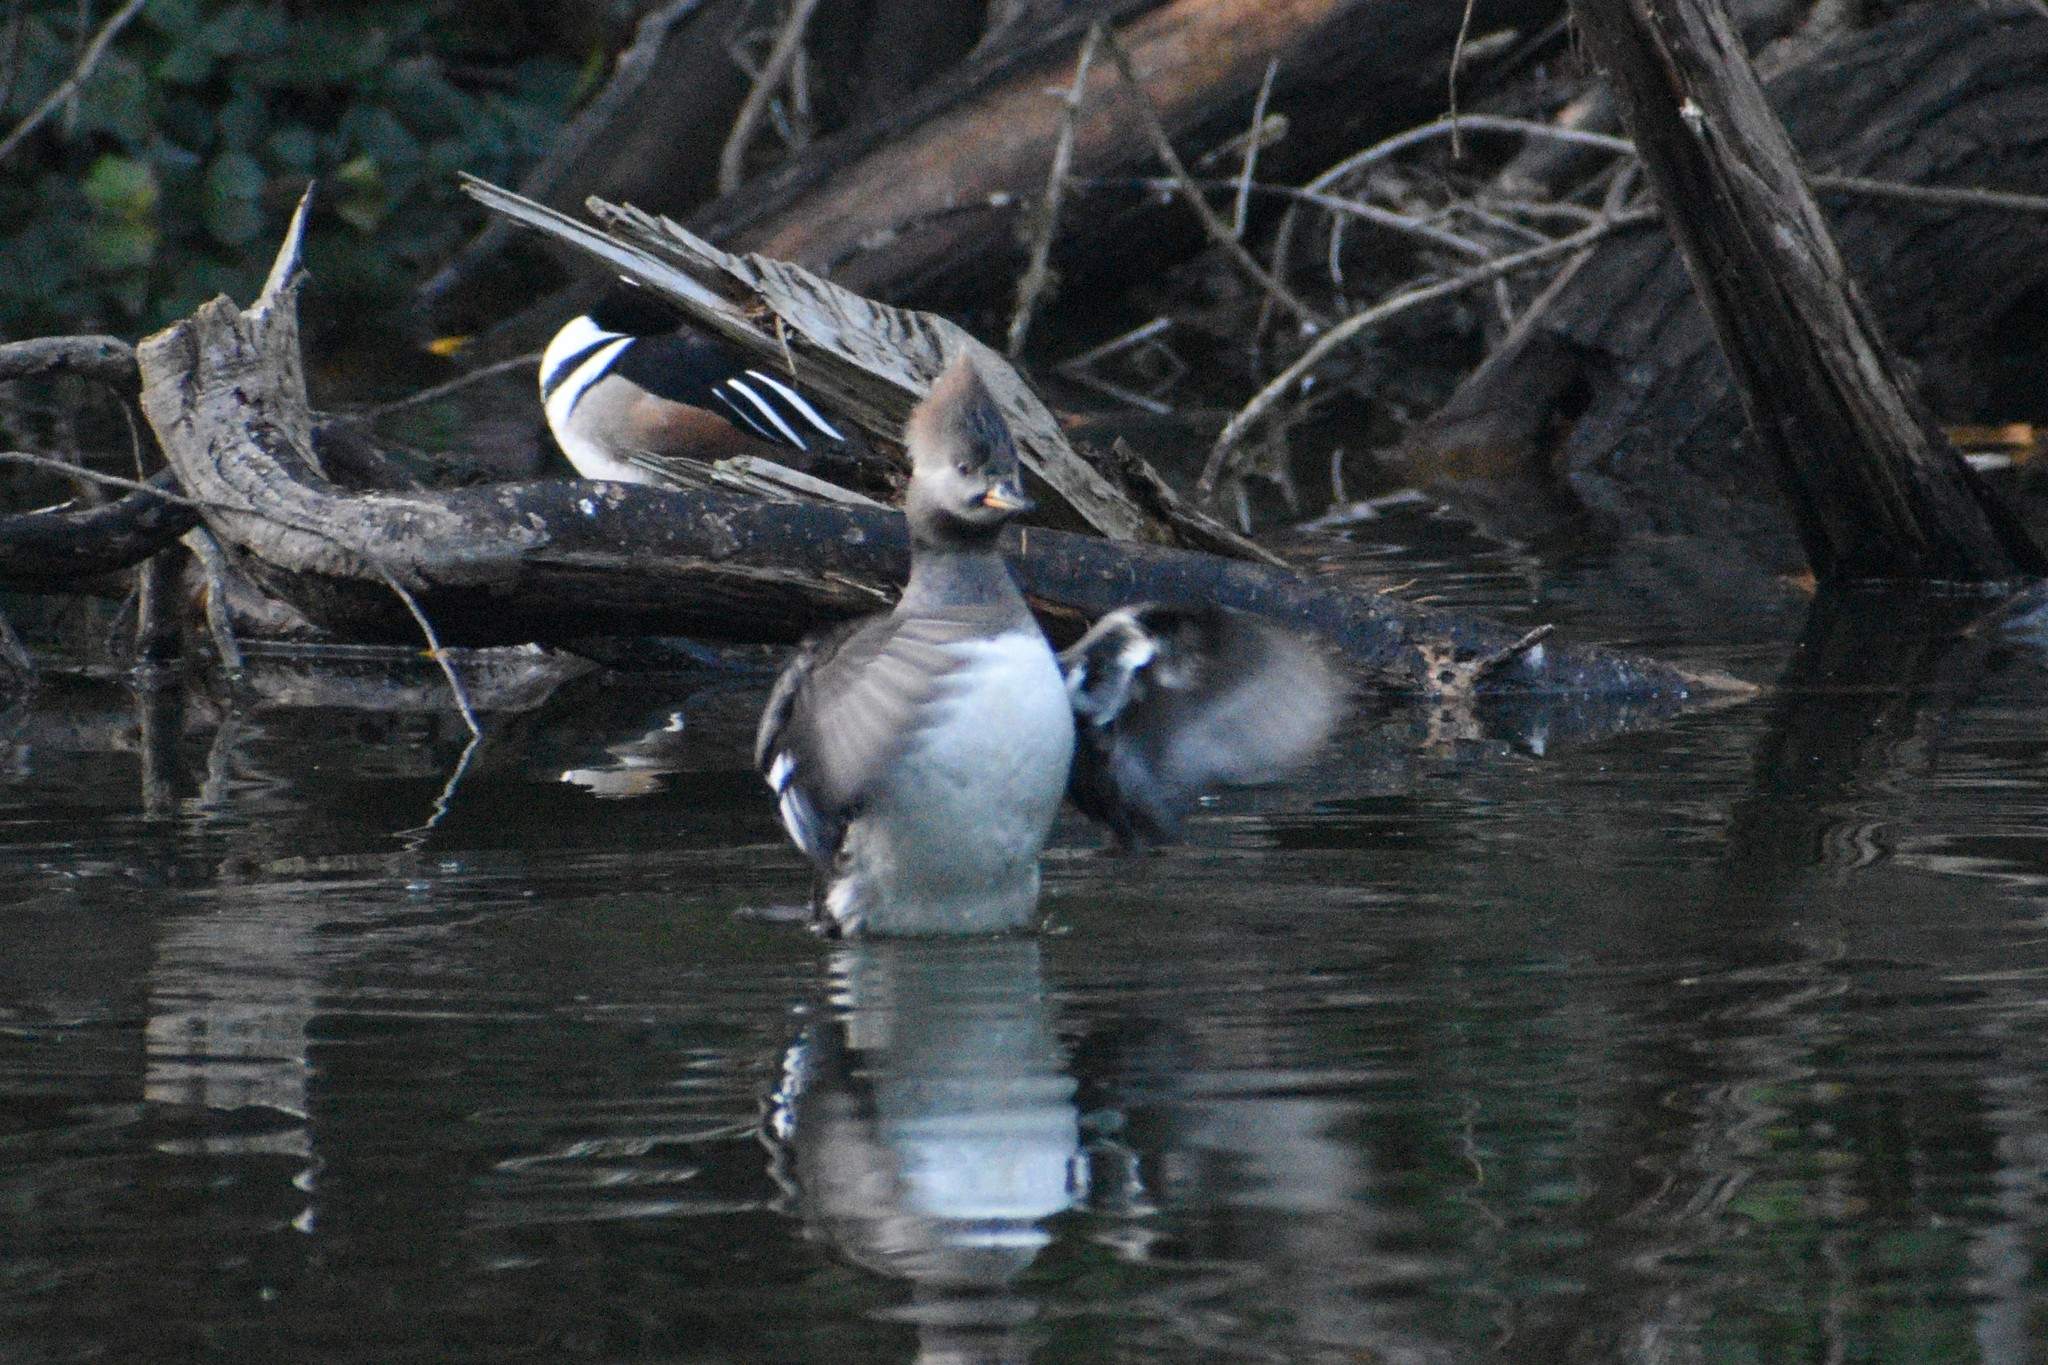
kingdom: Animalia
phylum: Chordata
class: Aves
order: Anseriformes
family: Anatidae
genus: Lophodytes
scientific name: Lophodytes cucullatus
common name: Hooded merganser
